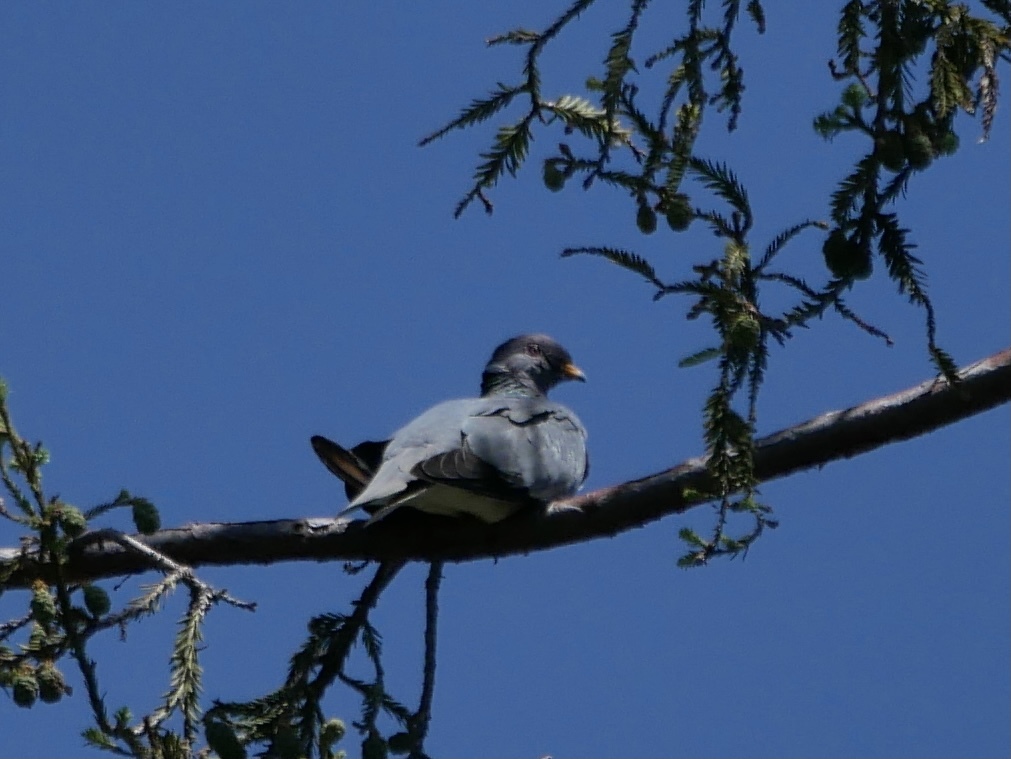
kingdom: Animalia
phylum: Chordata
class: Aves
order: Columbiformes
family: Columbidae
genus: Patagioenas
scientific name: Patagioenas fasciata
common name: Band-tailed pigeon
